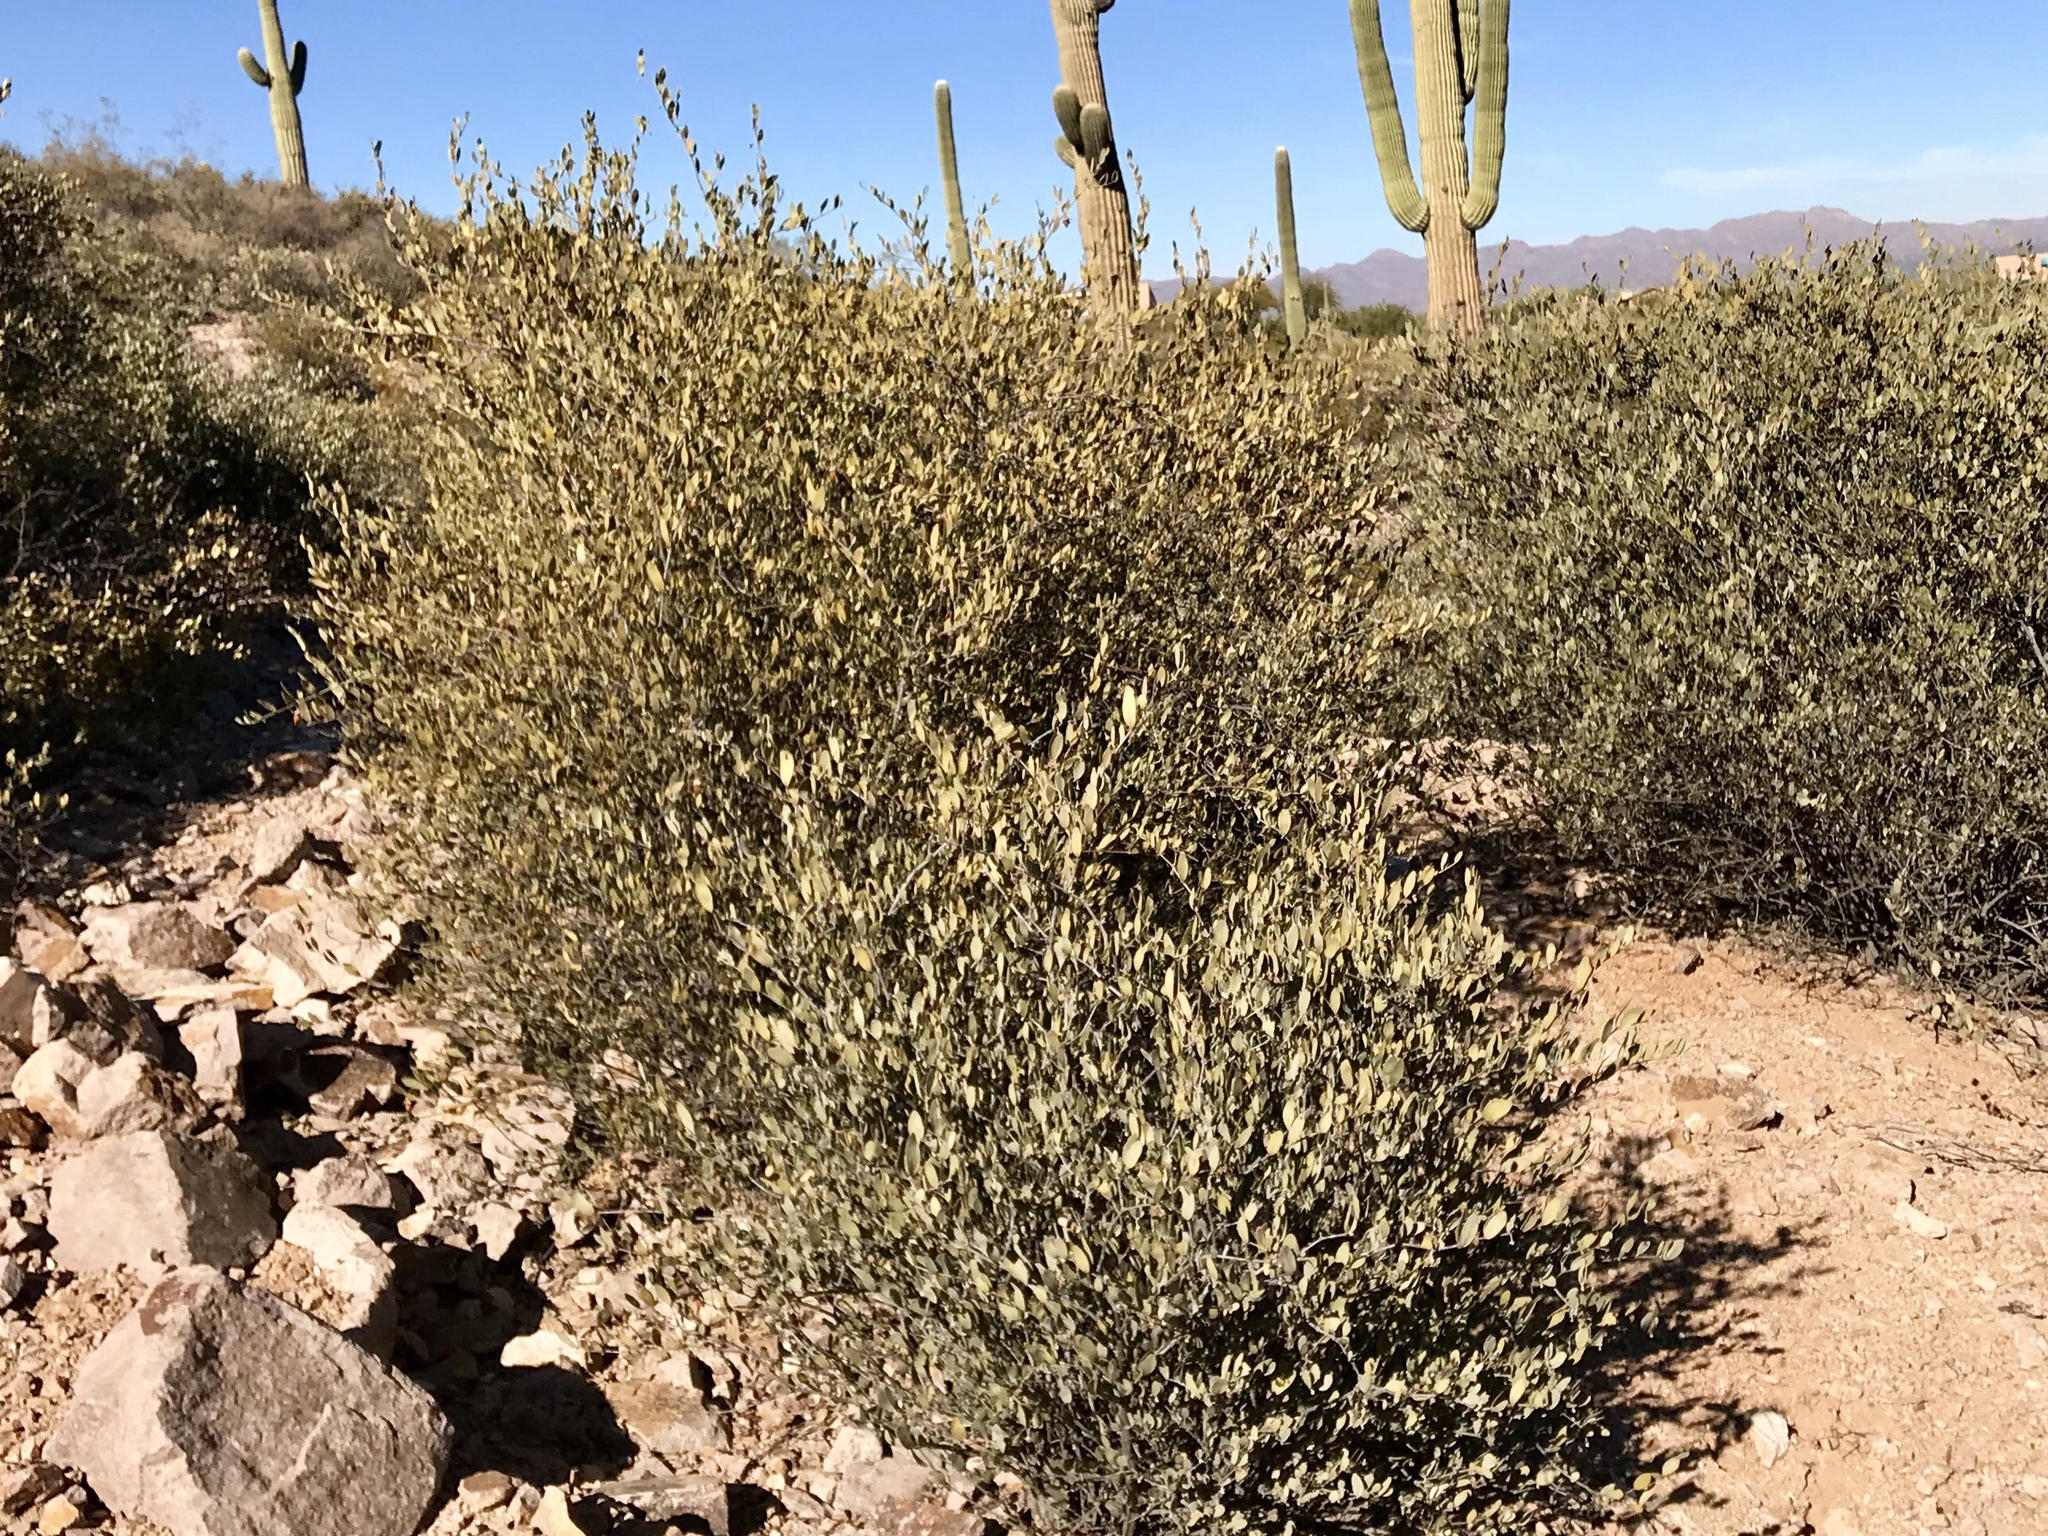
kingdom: Plantae
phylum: Tracheophyta
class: Magnoliopsida
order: Caryophyllales
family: Simmondsiaceae
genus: Simmondsia
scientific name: Simmondsia chinensis
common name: Jojoba
